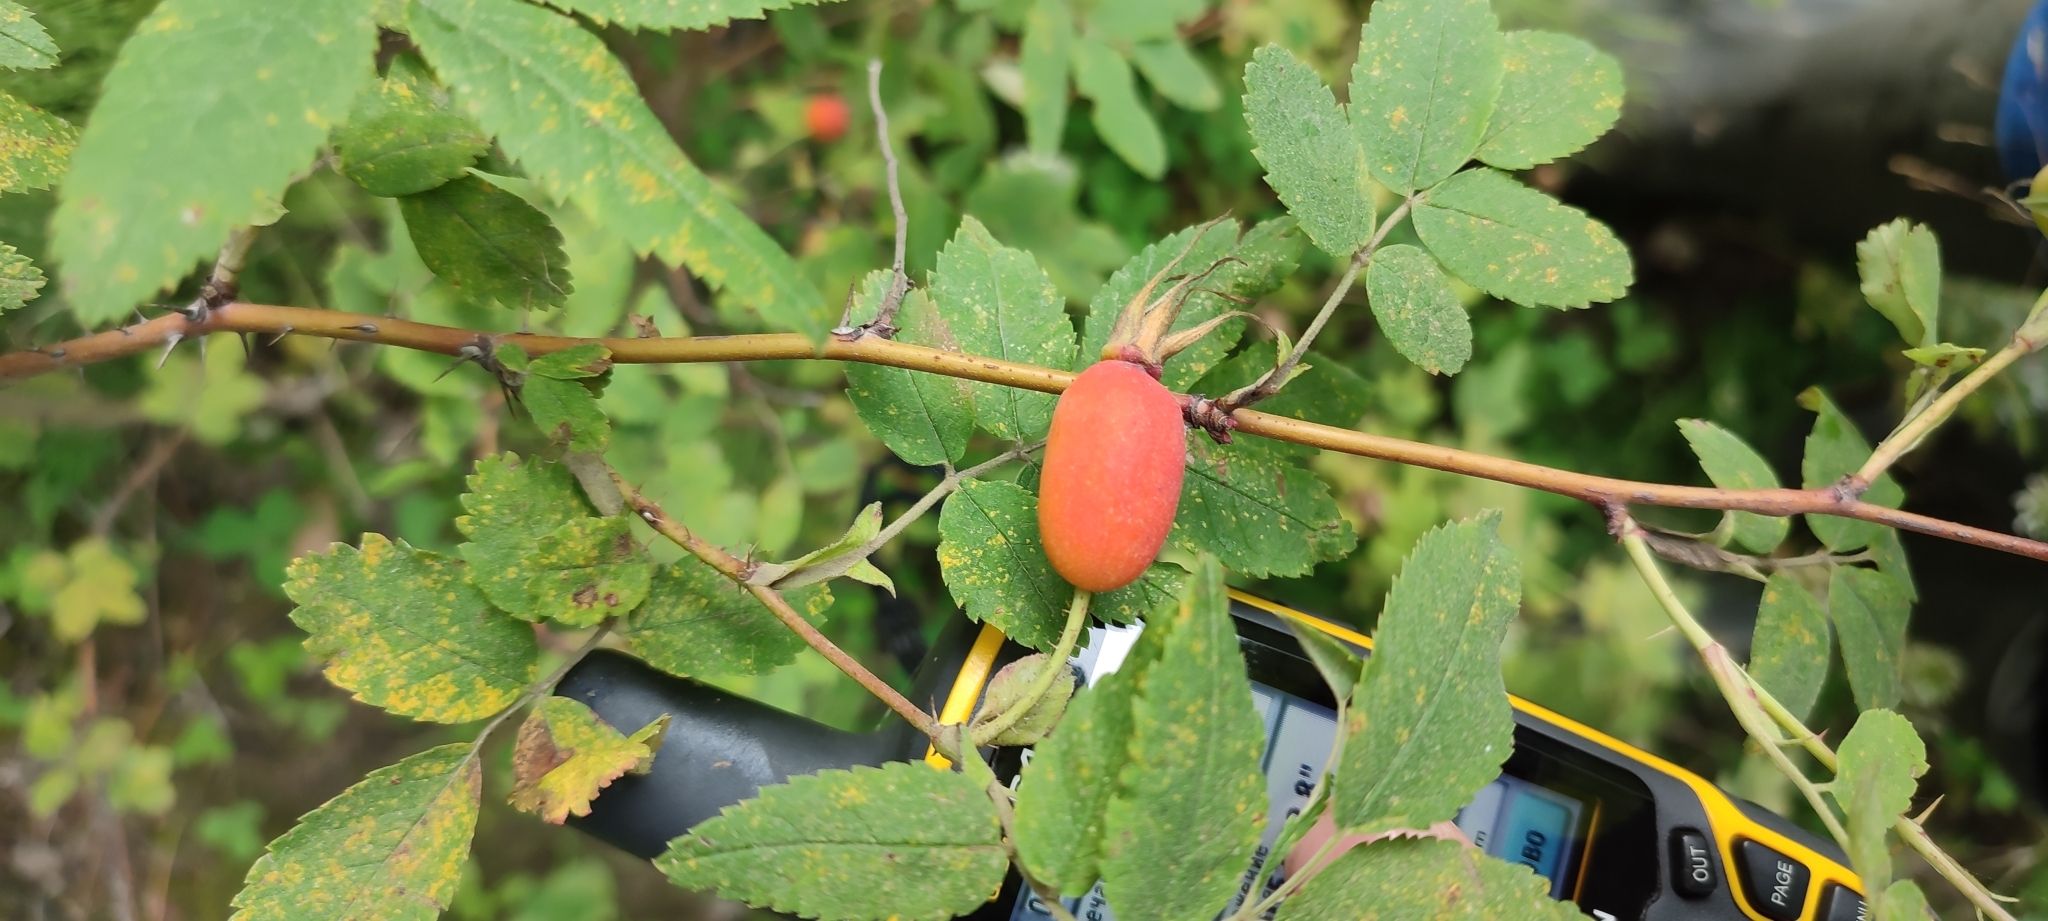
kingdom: Plantae
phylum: Tracheophyta
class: Magnoliopsida
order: Rosales
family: Rosaceae
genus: Rosa
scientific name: Rosa majalis
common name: Cinnamon rose
